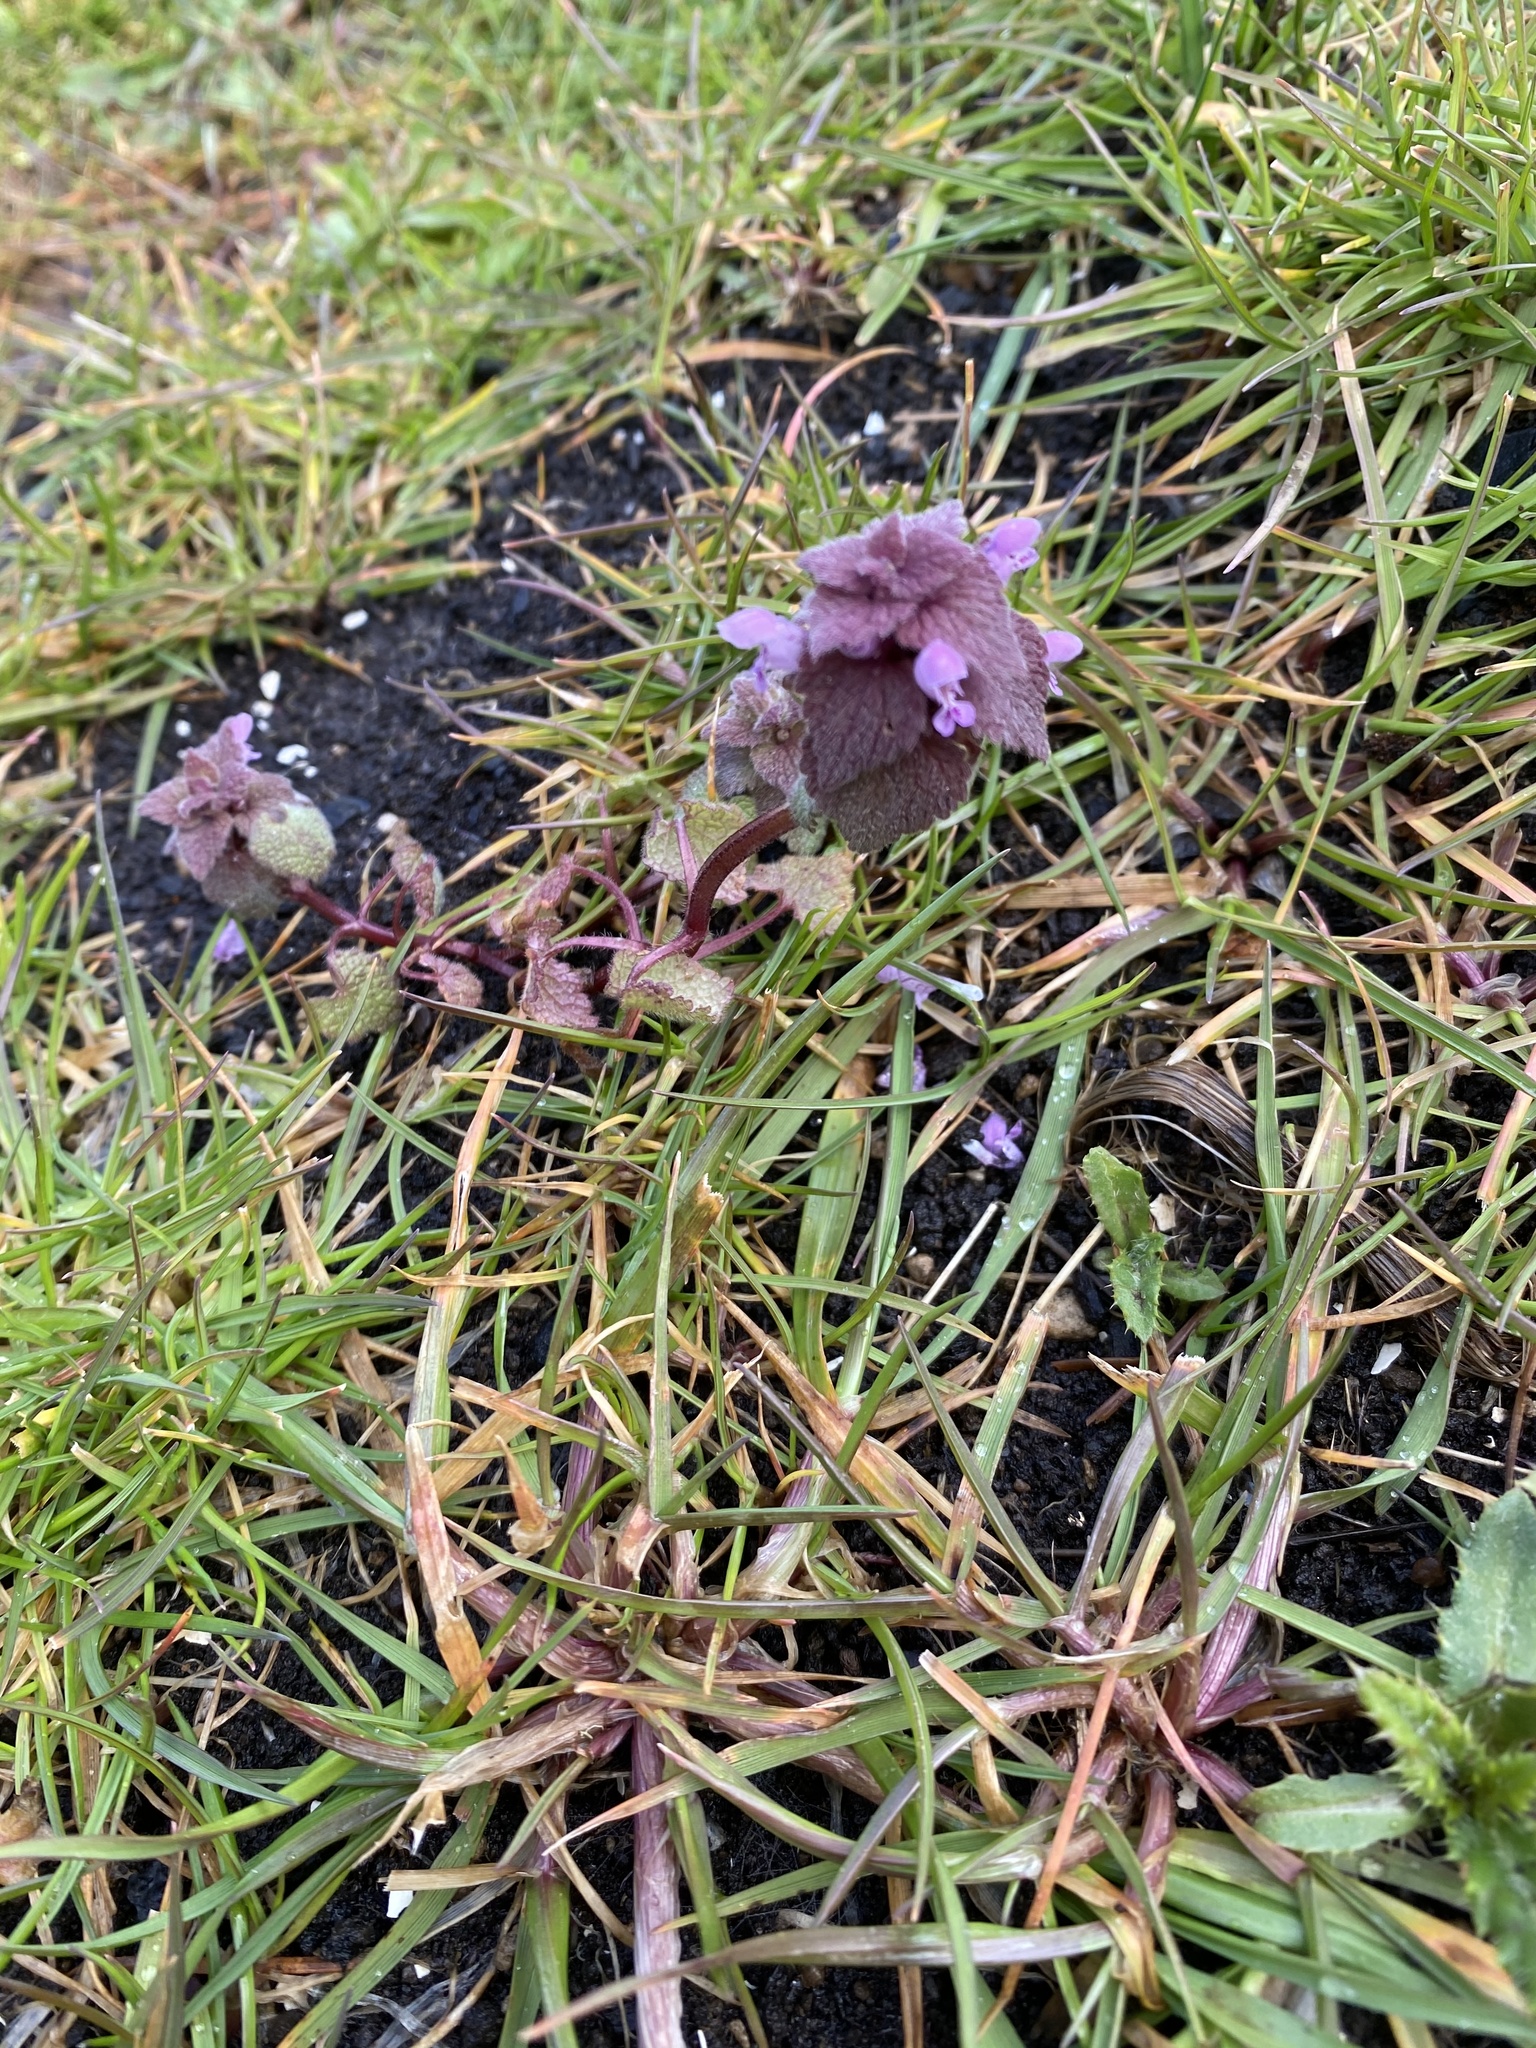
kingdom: Plantae
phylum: Tracheophyta
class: Magnoliopsida
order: Lamiales
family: Lamiaceae
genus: Lamium
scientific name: Lamium purpureum
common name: Red dead-nettle
